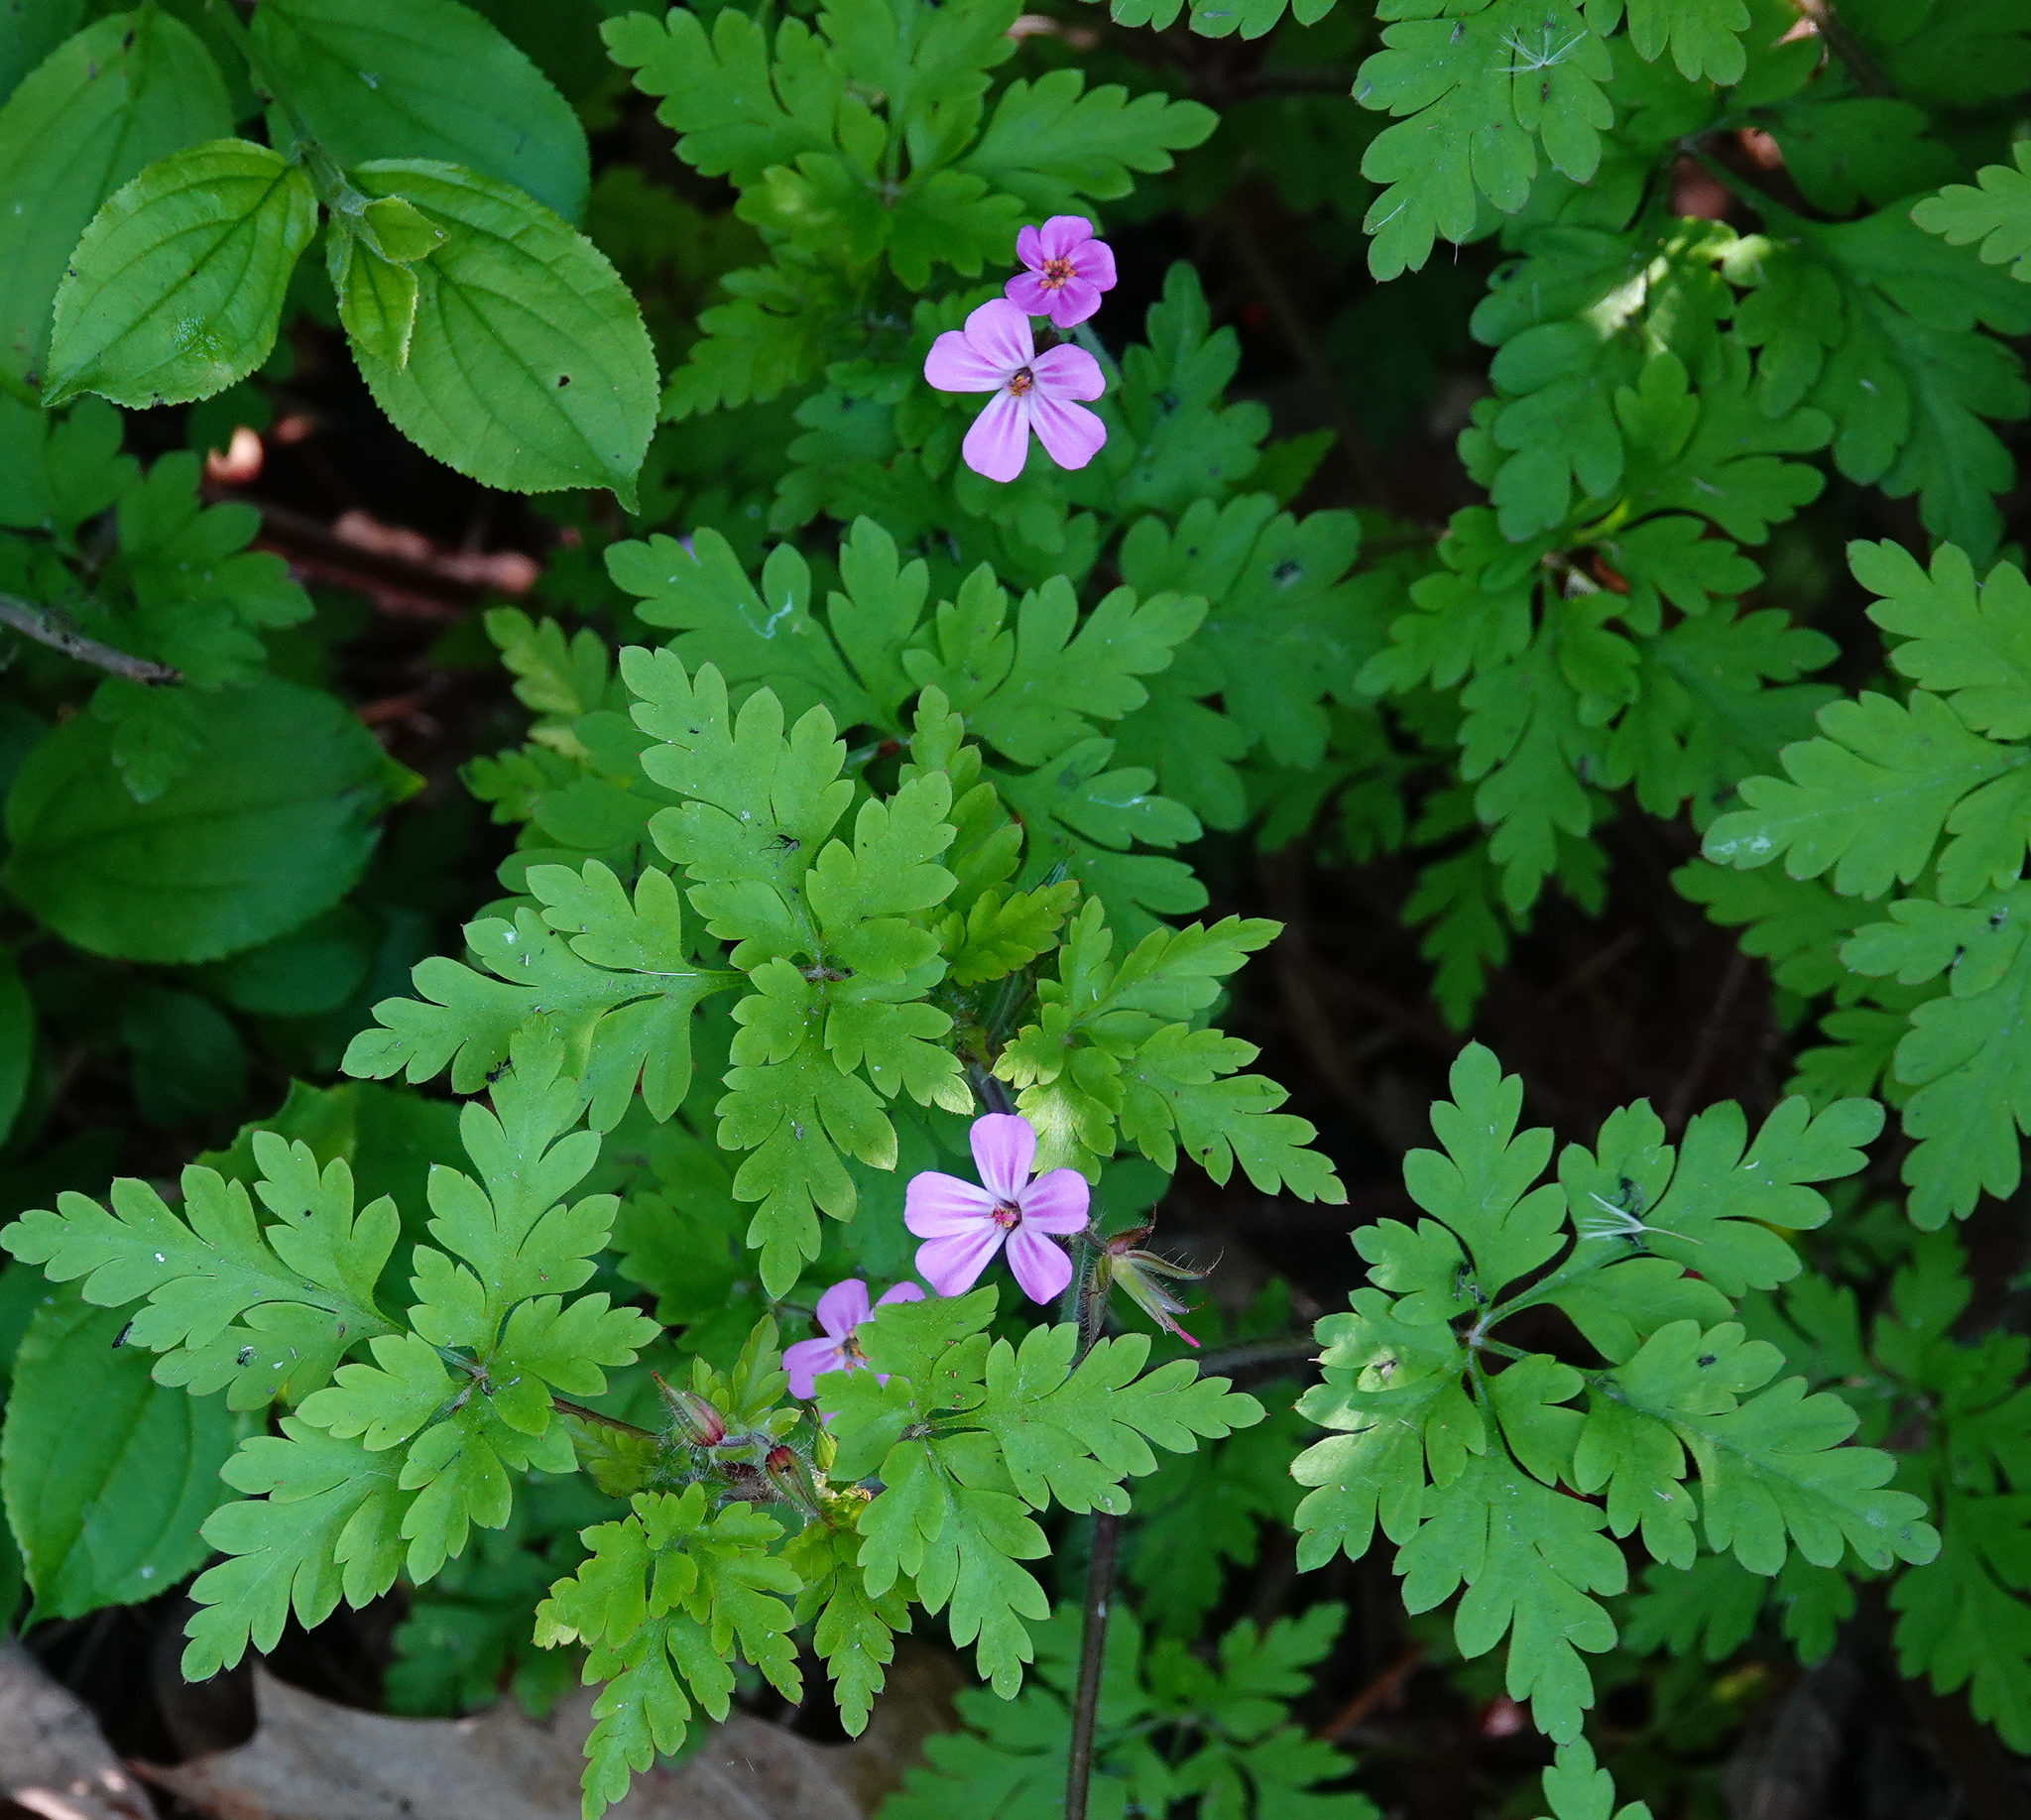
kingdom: Plantae
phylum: Tracheophyta
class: Magnoliopsida
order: Geraniales
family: Geraniaceae
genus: Geranium
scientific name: Geranium robertianum
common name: Herb-robert
